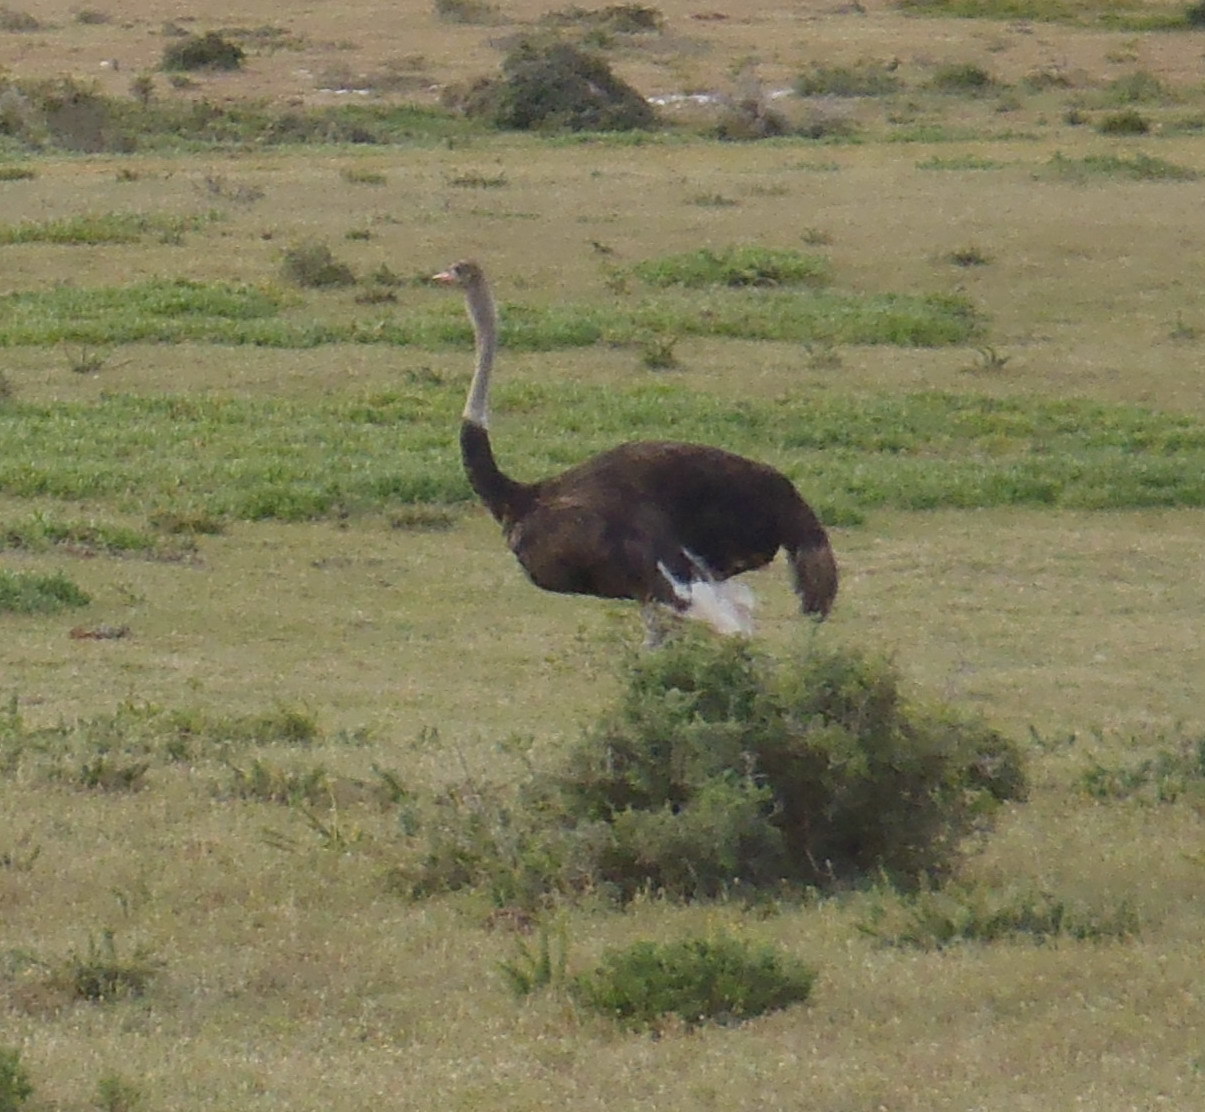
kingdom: Animalia
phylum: Chordata
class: Aves
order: Struthioniformes
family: Struthionidae
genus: Struthio
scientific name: Struthio camelus
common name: Common ostrich
